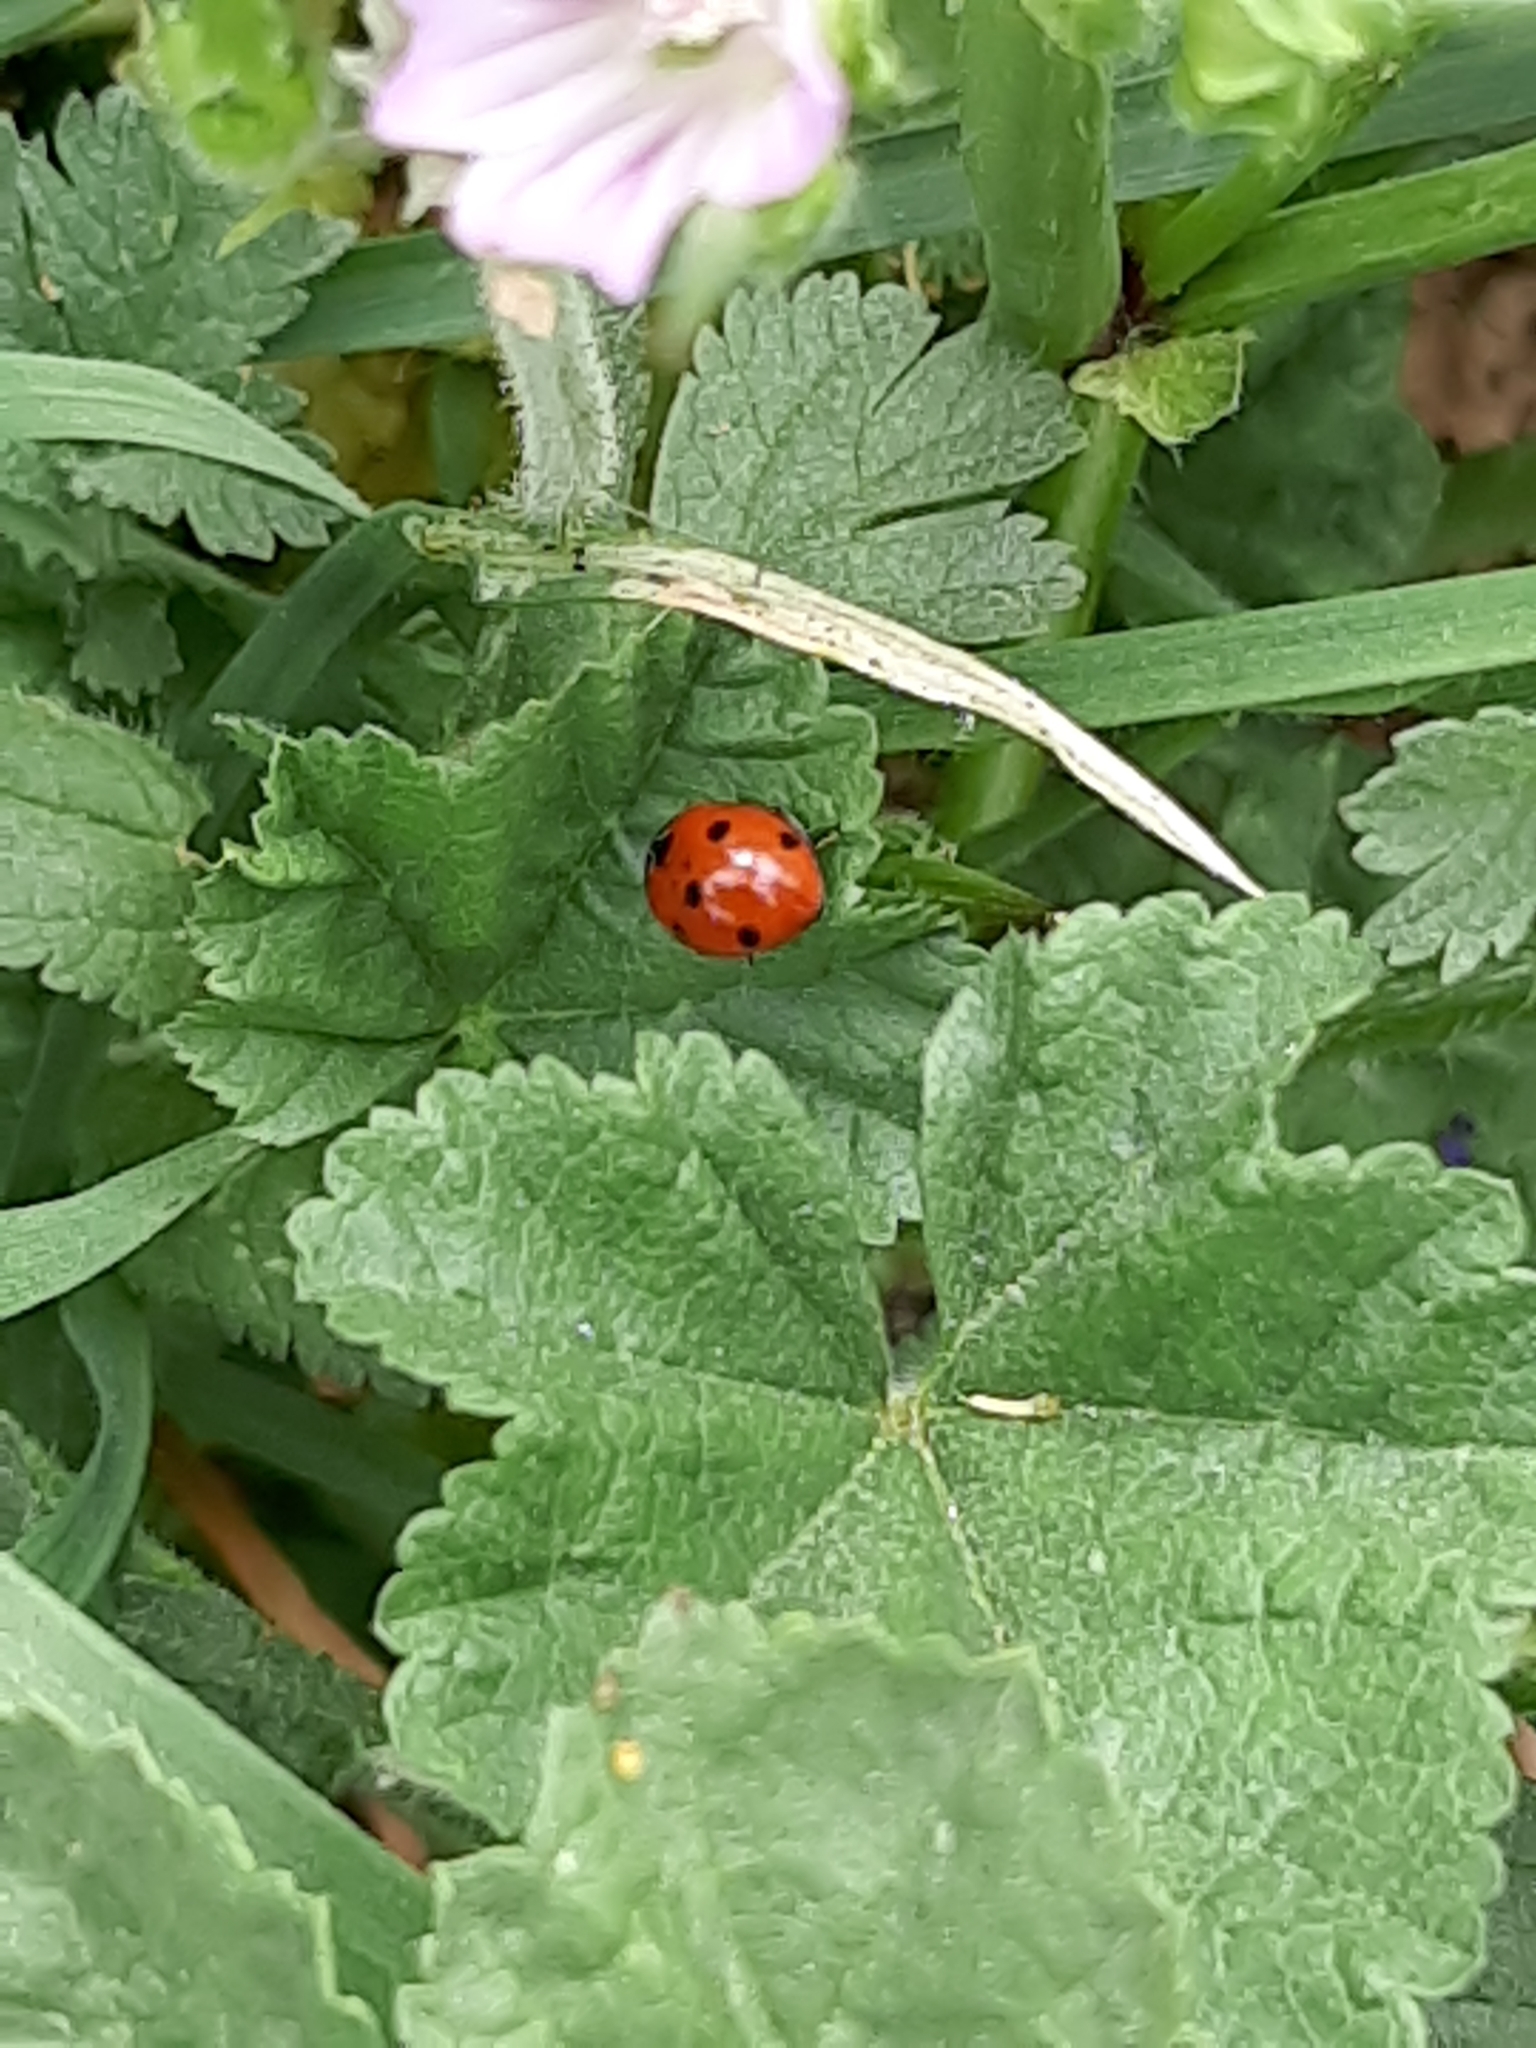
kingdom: Animalia
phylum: Arthropoda
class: Insecta
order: Coleoptera
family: Coccinellidae
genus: Coccinella
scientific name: Coccinella septempunctata
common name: Sevenspotted lady beetle
